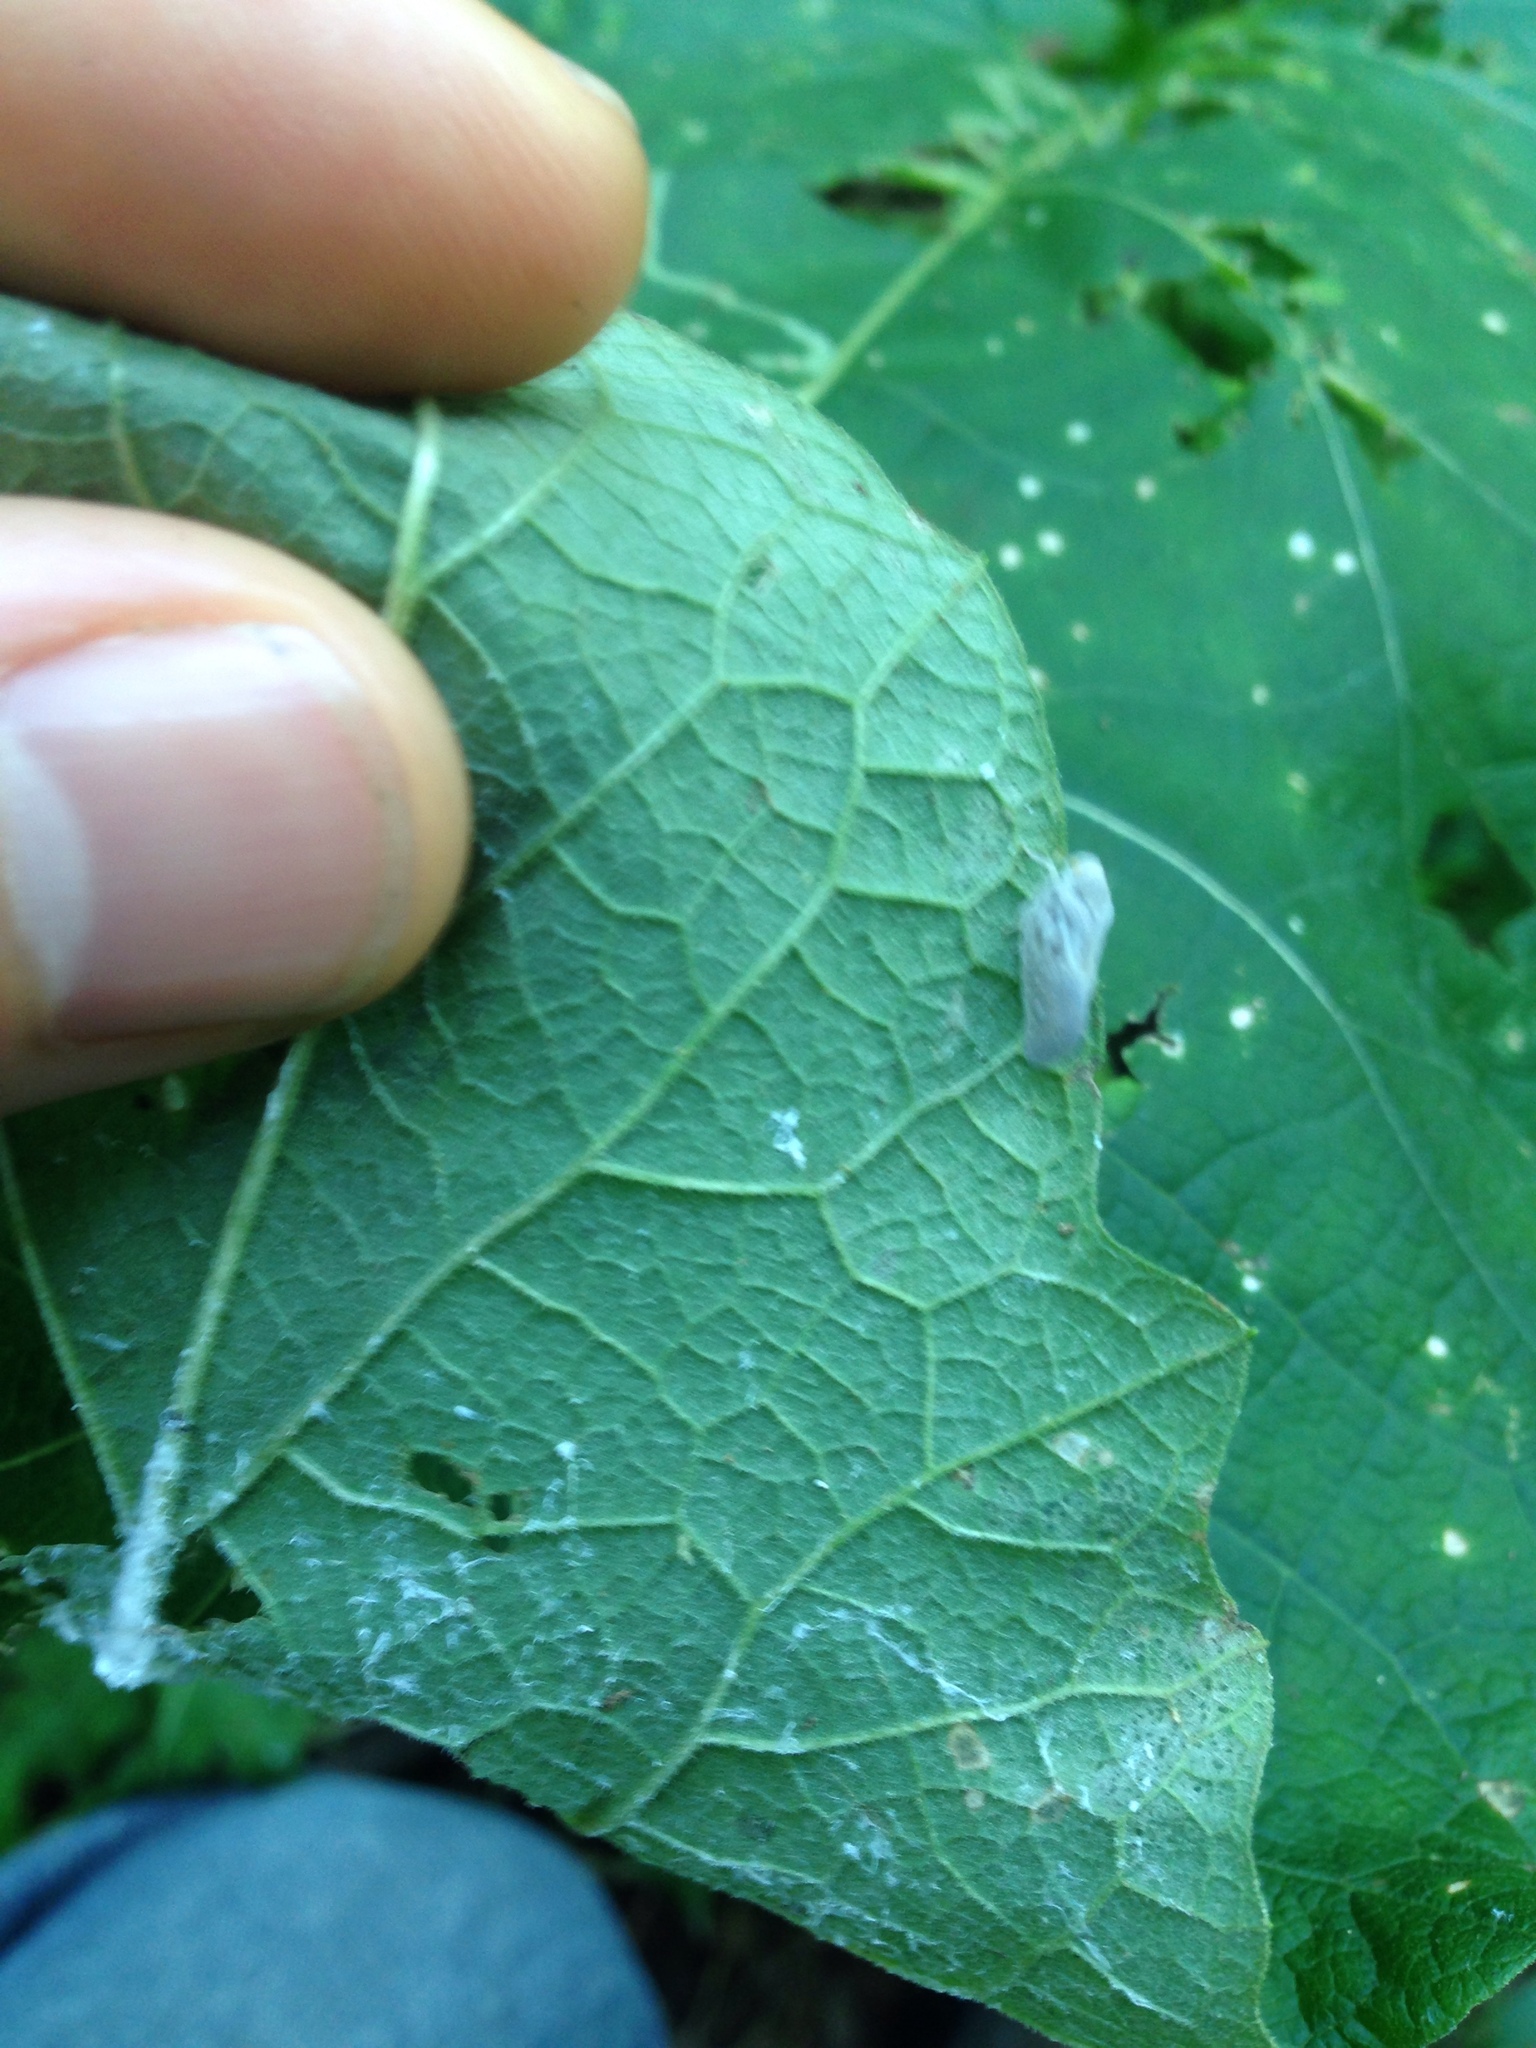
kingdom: Animalia
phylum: Arthropoda
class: Insecta
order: Hemiptera
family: Flatidae
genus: Metcalfa
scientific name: Metcalfa pruinosa
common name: Citrus flatid planthopper
